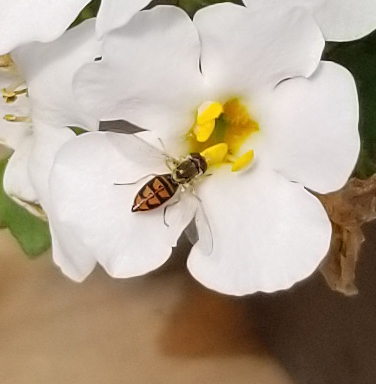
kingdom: Animalia
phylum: Arthropoda
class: Insecta
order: Diptera
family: Syrphidae
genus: Toxomerus
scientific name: Toxomerus marginatus
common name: Syrphid fly
